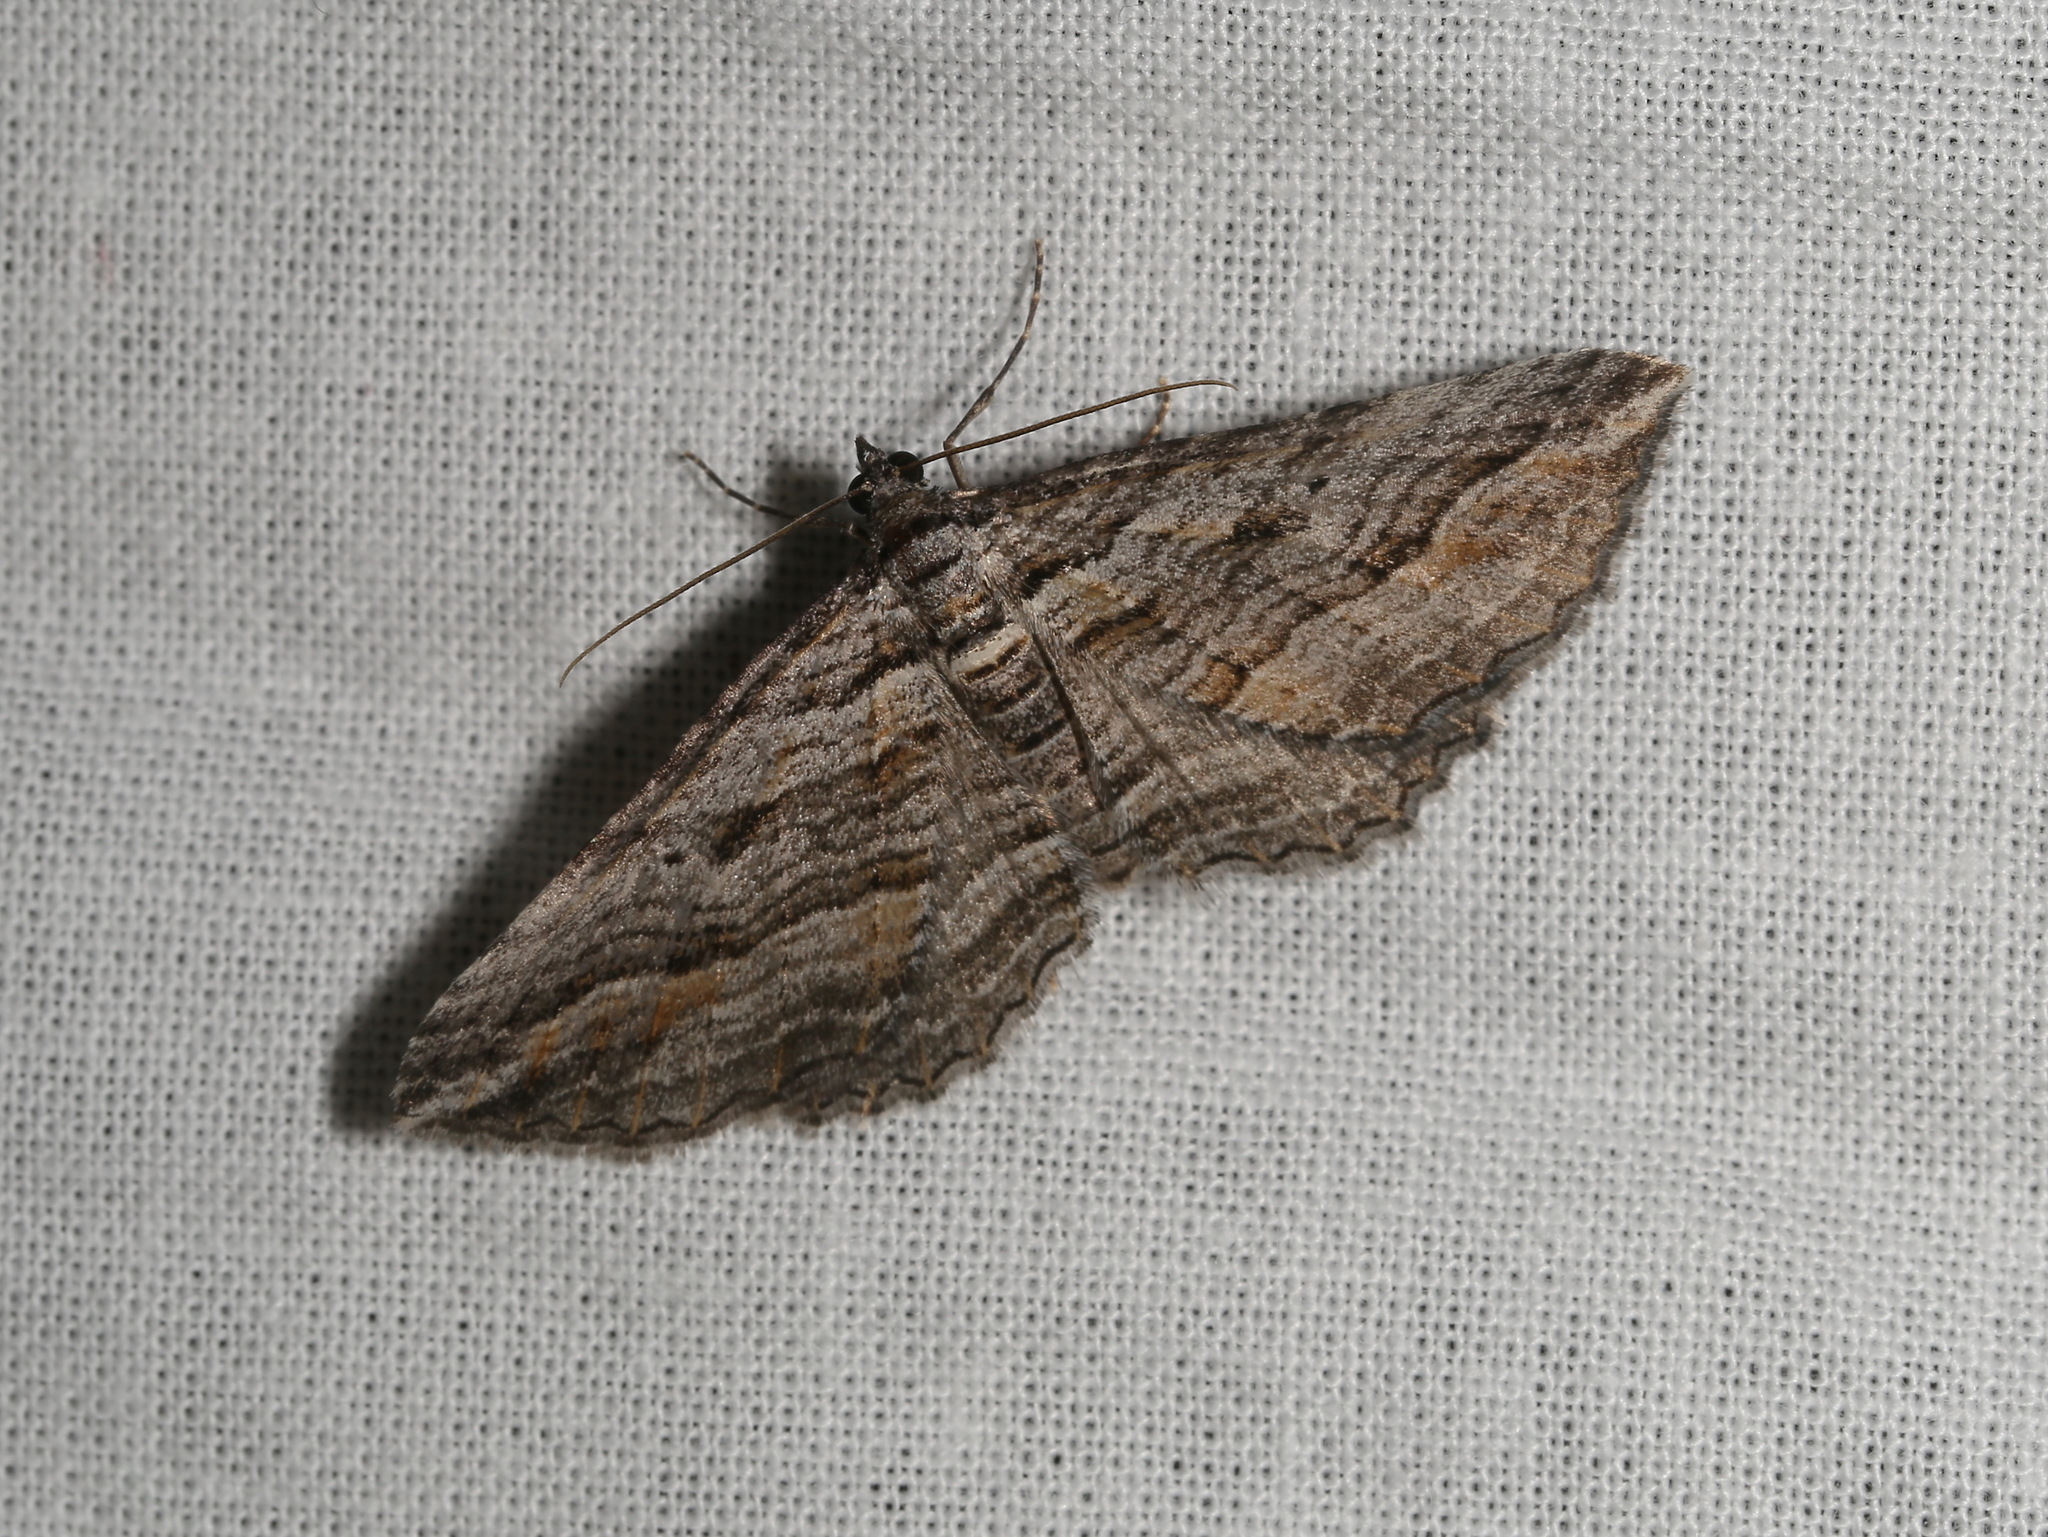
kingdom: Animalia
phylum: Arthropoda
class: Insecta
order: Lepidoptera
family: Geometridae
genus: Chrysolarentia
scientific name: Chrysolarentia severata
